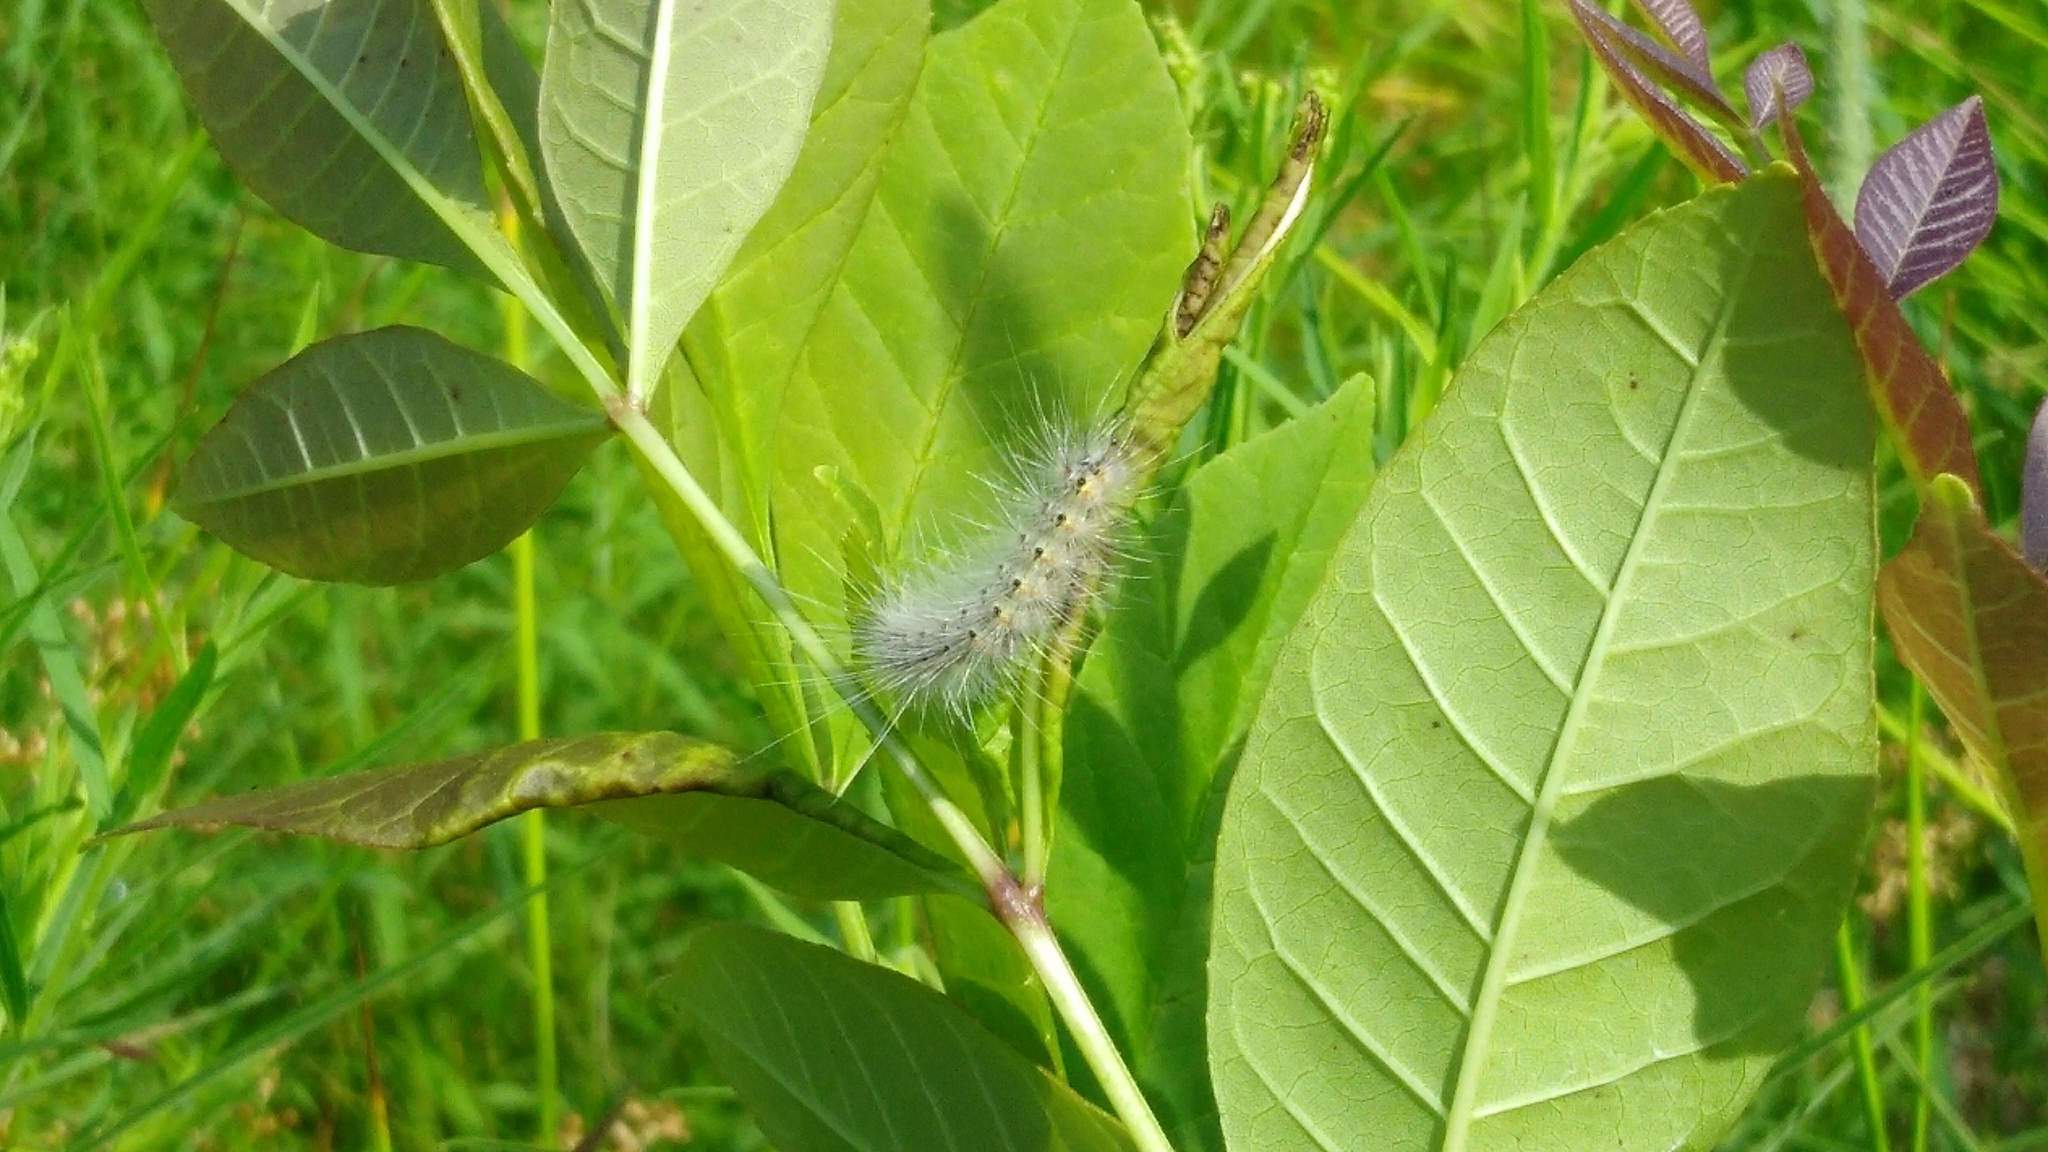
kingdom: Animalia
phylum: Arthropoda
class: Insecta
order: Lepidoptera
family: Erebidae
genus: Hyphantria
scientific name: Hyphantria cunea
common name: American white moth
